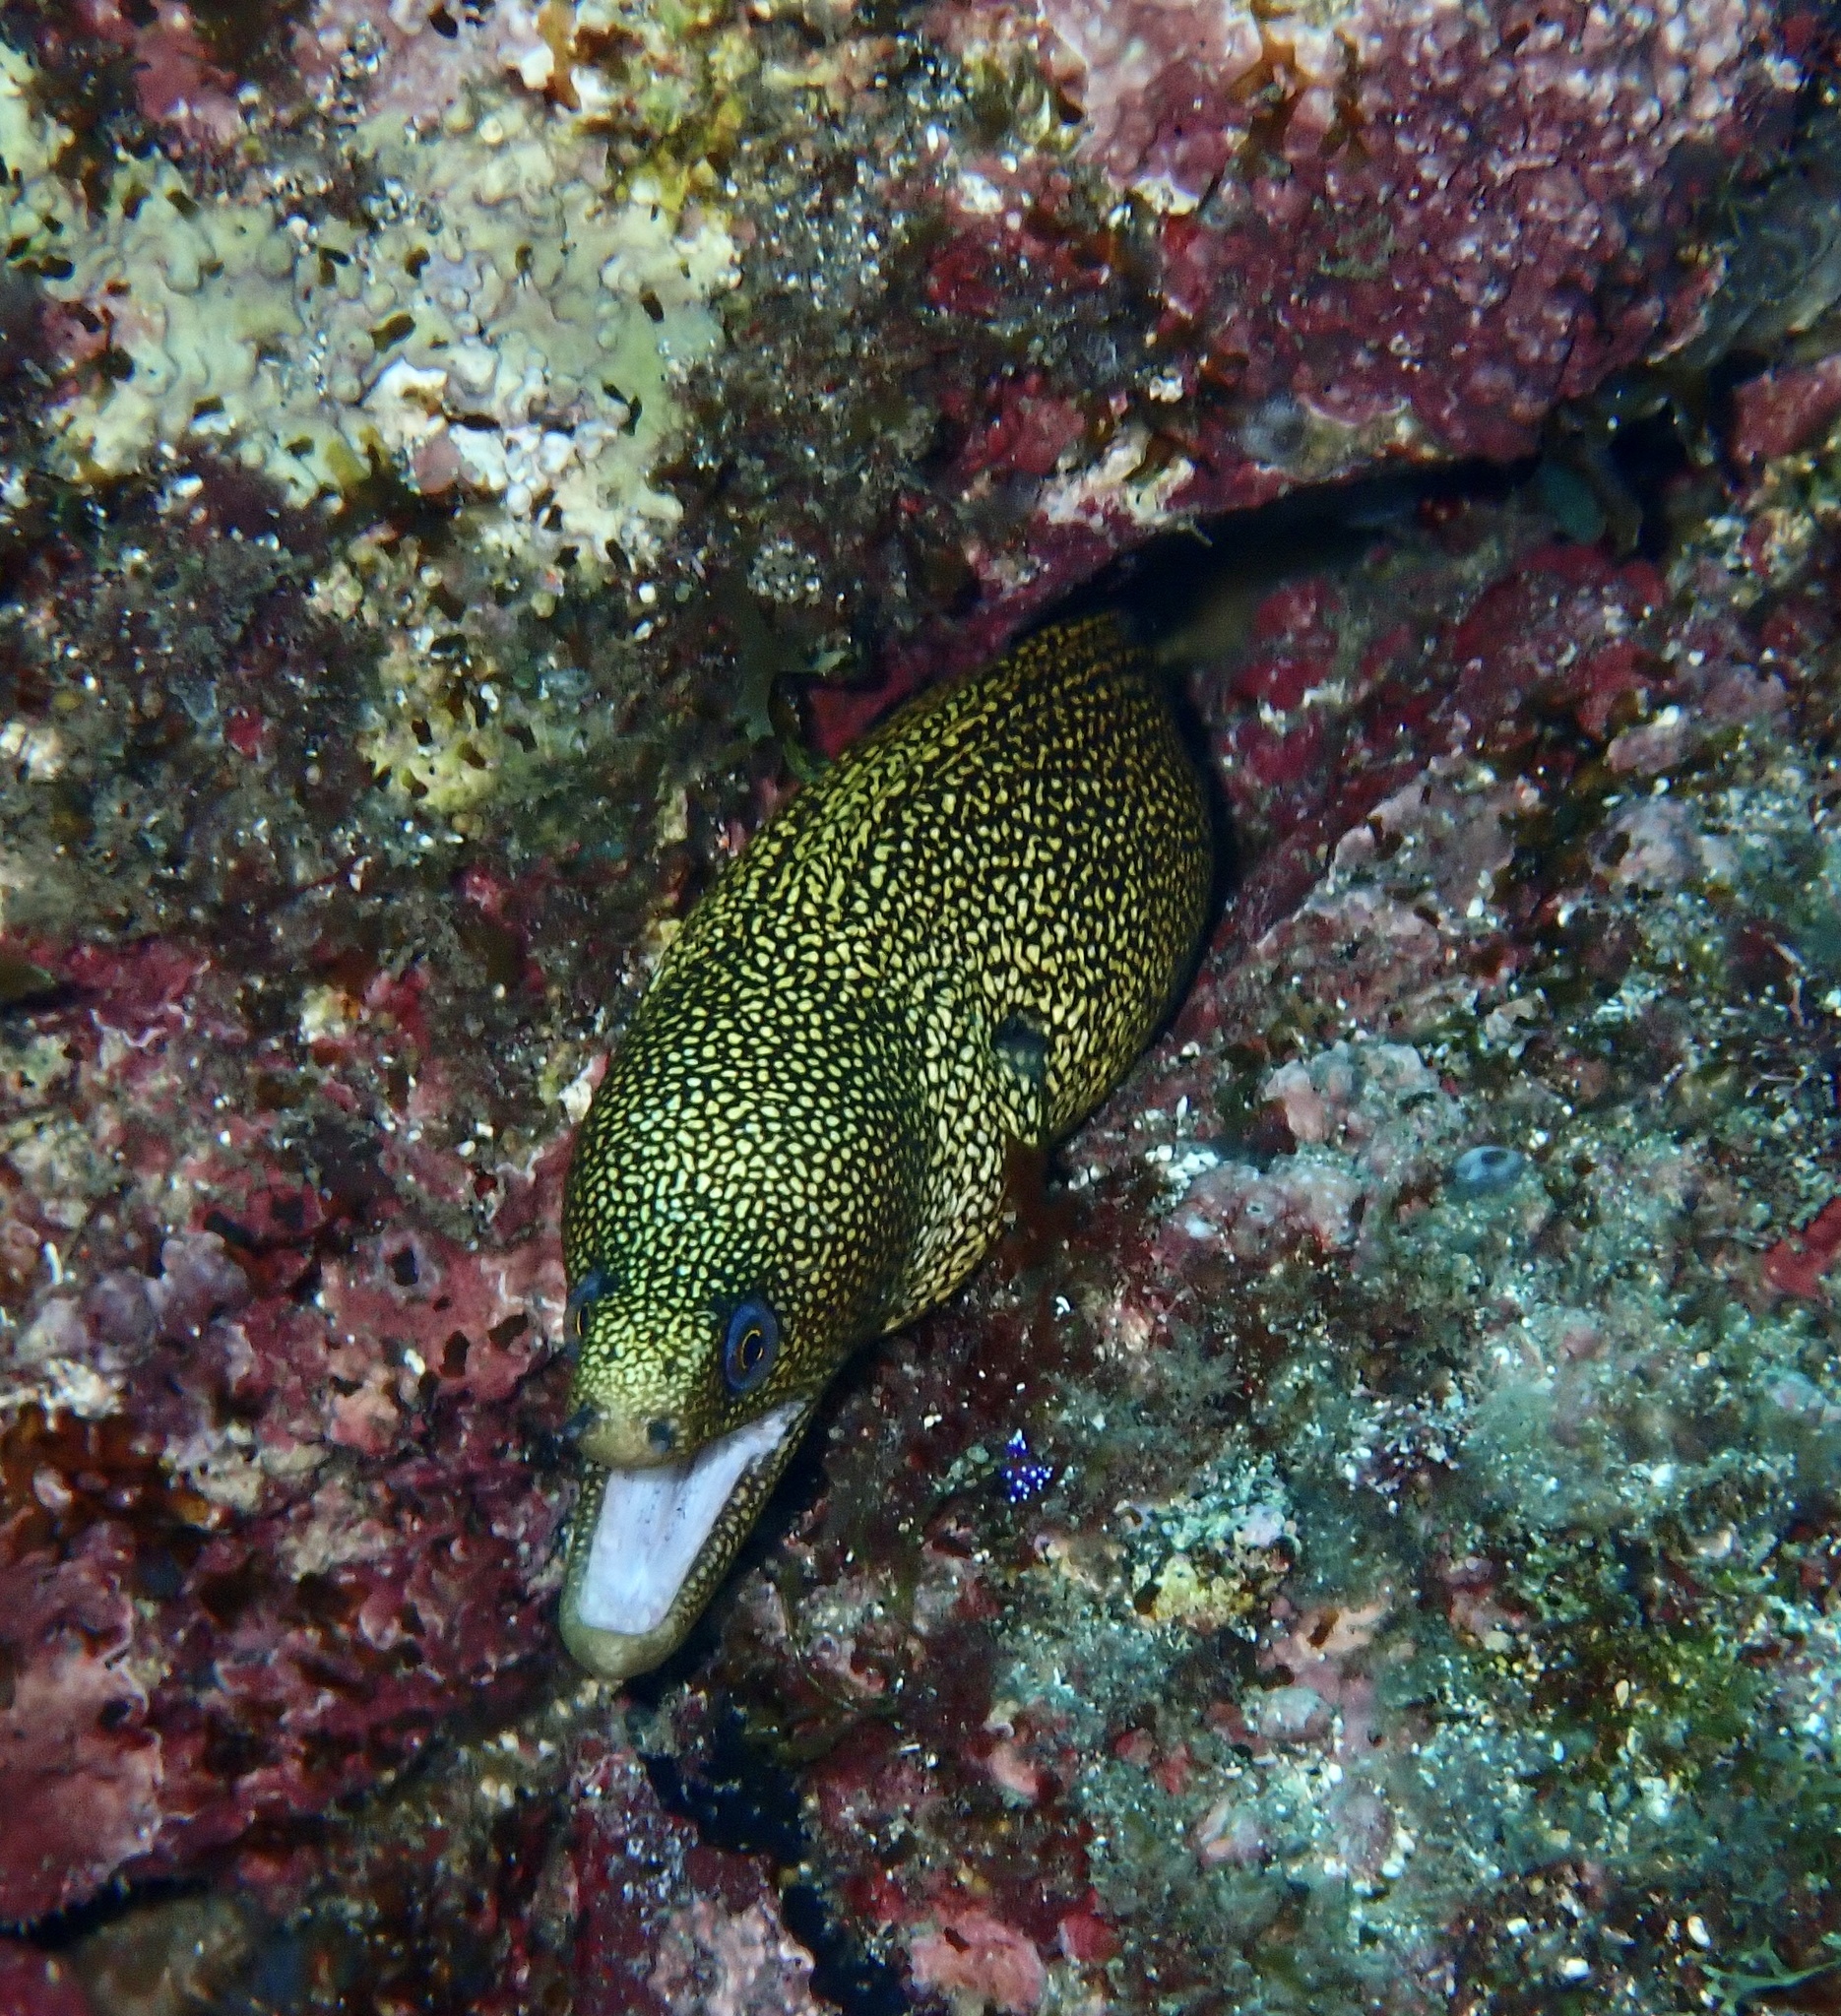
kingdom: Animalia
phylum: Chordata
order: Anguilliformes
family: Muraenidae
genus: Gymnothorax
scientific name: Gymnothorax miliaris
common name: Goldentail moray
